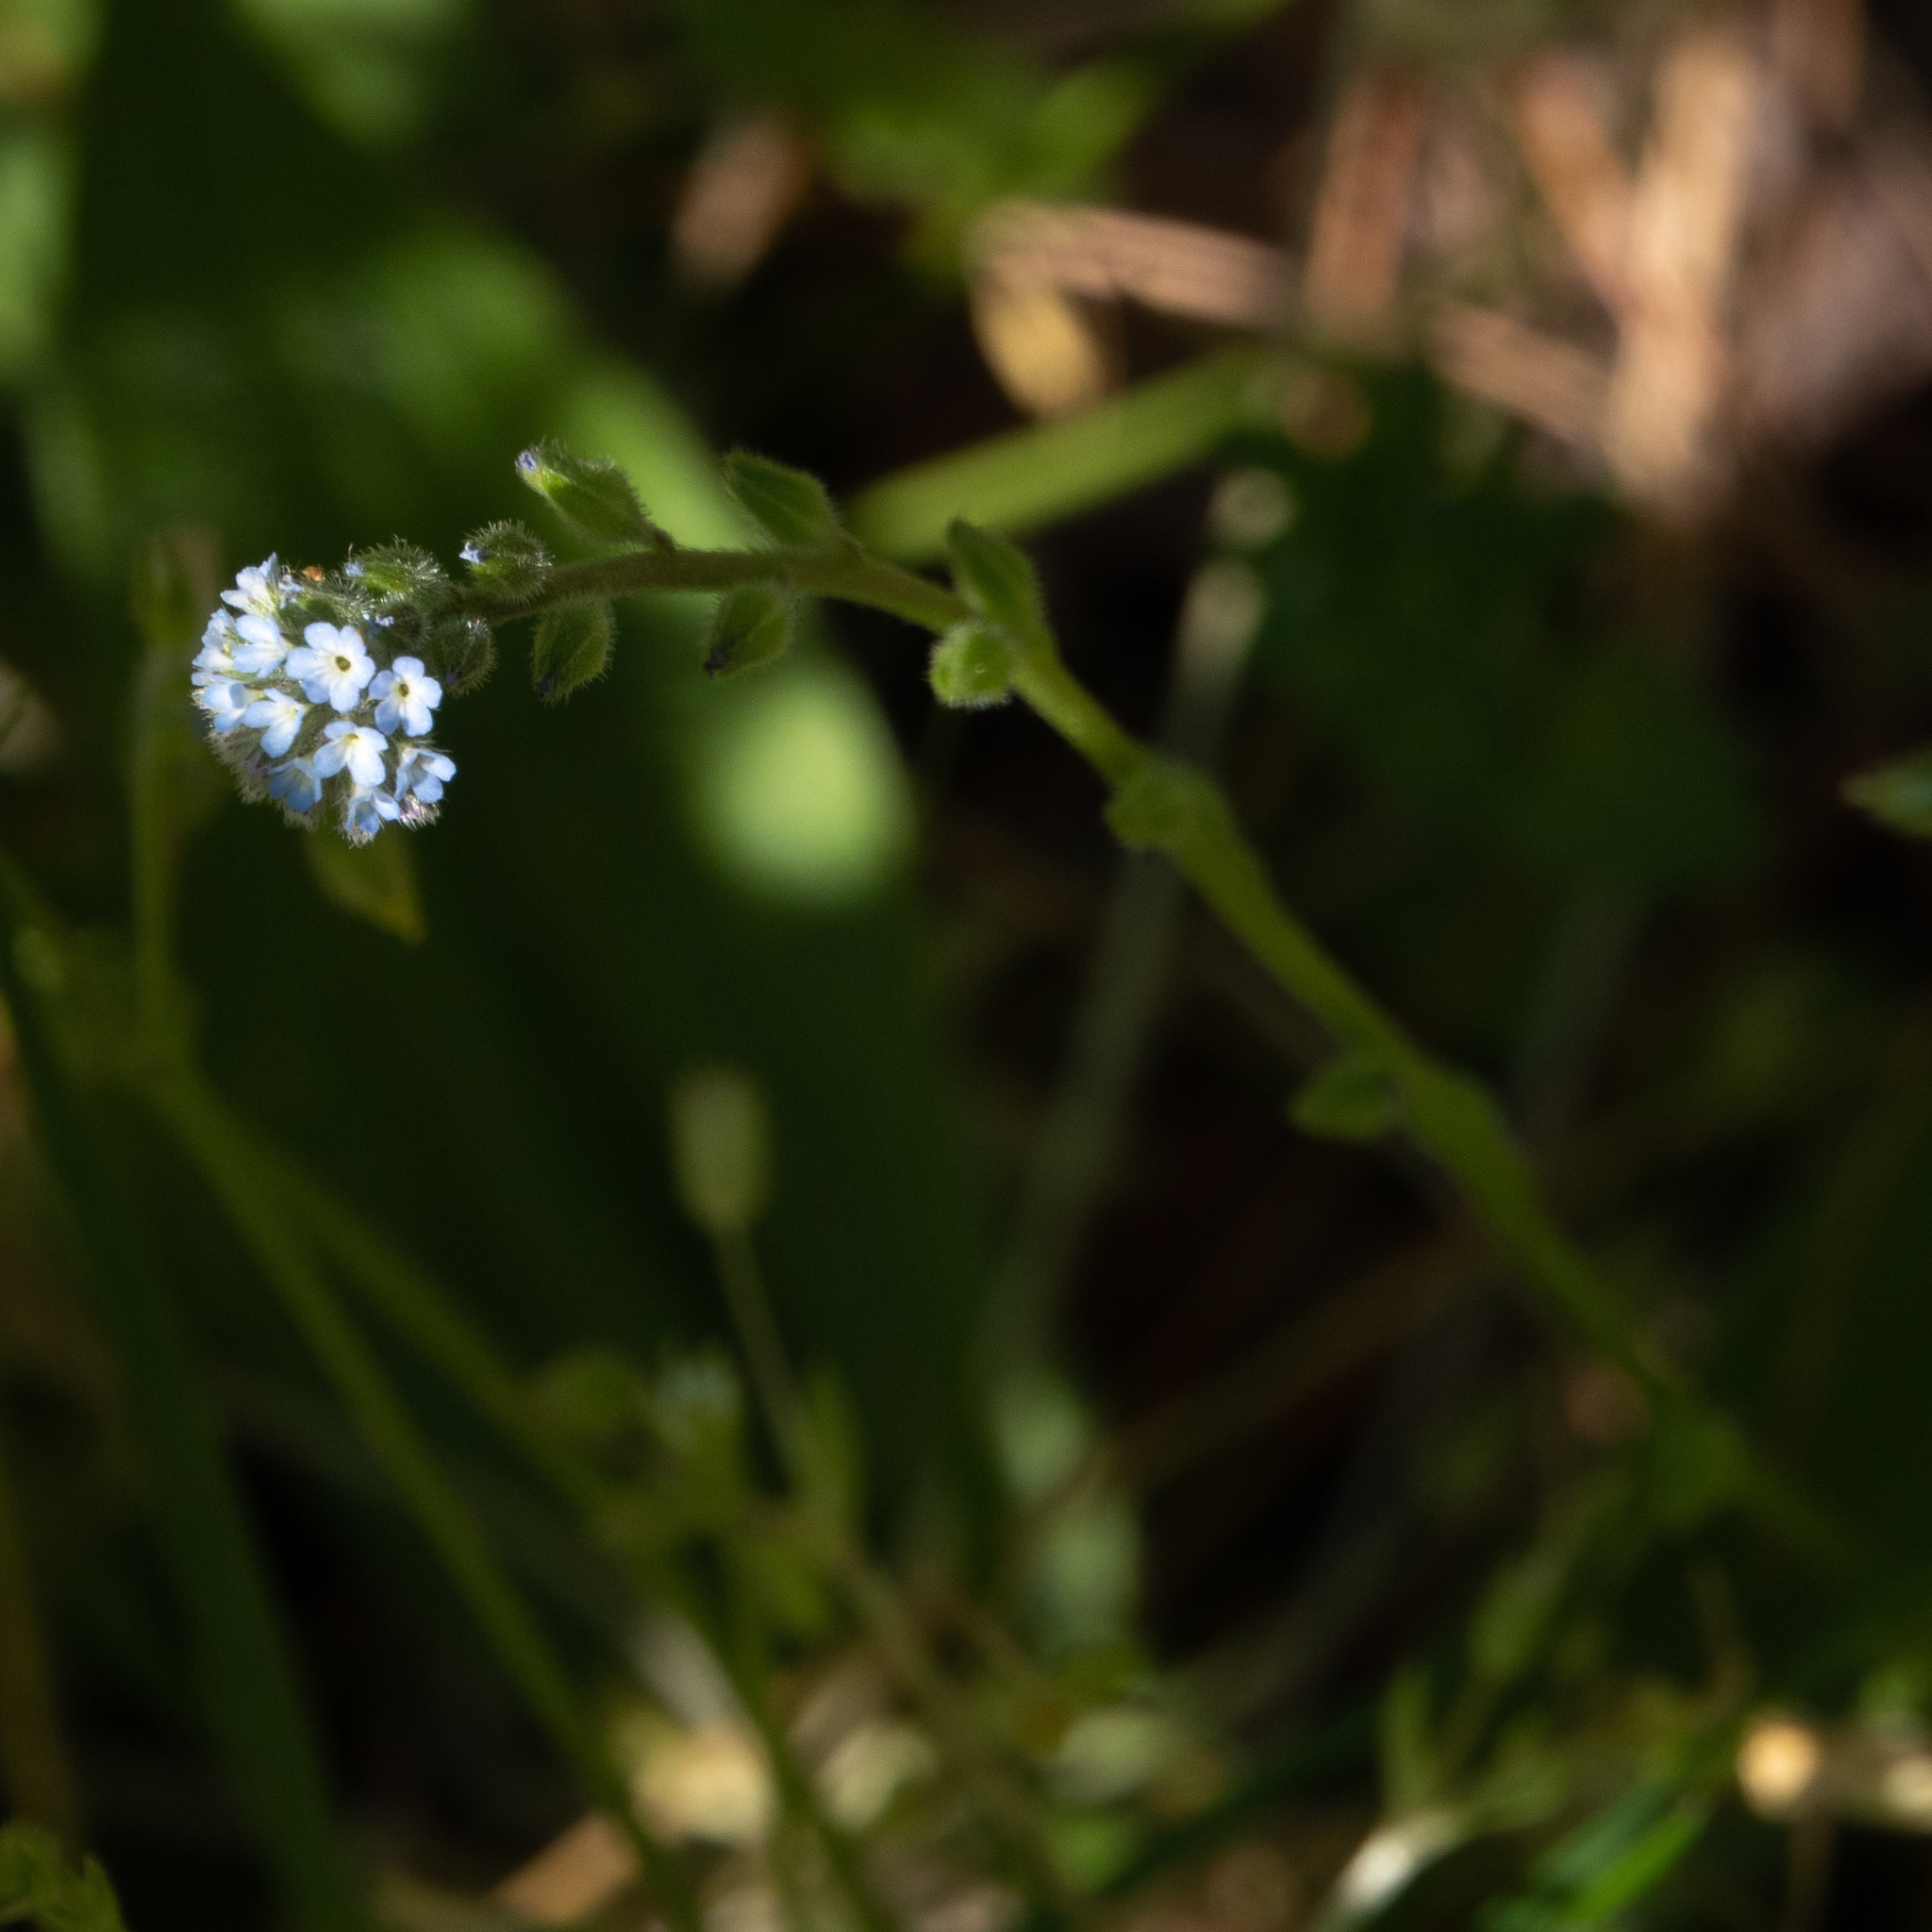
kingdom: Plantae
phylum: Tracheophyta
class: Magnoliopsida
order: Boraginales
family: Boraginaceae
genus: Myosotis
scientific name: Myosotis stricta
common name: Strict forget-me-not
